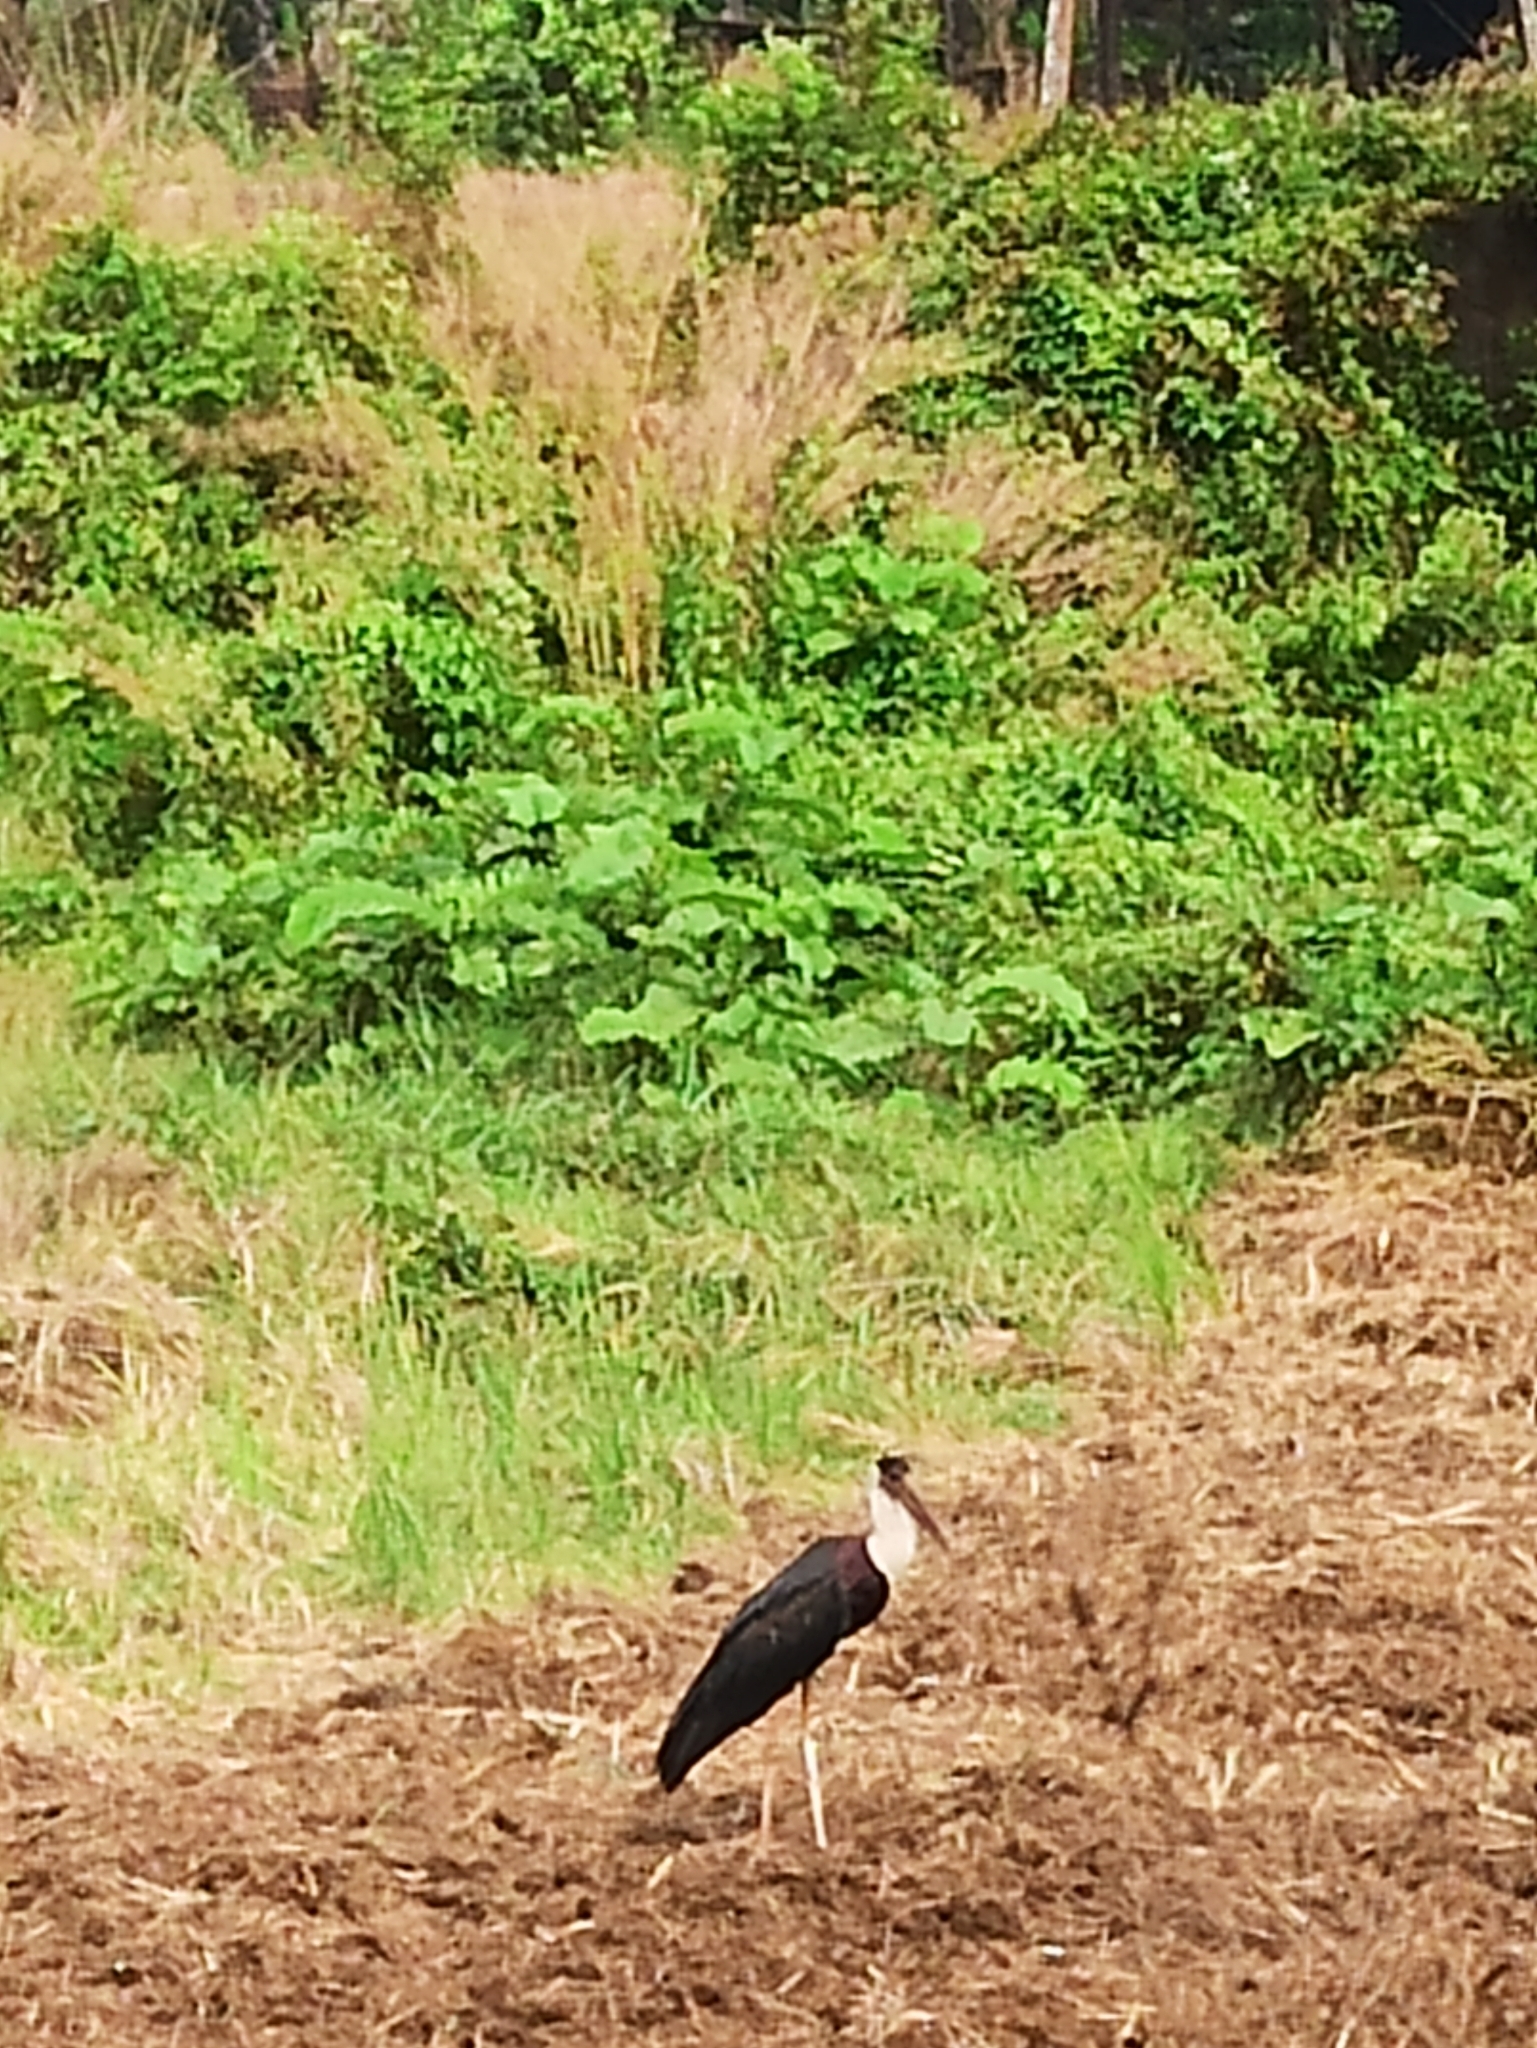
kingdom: Animalia
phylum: Chordata
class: Aves
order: Ciconiiformes
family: Ciconiidae
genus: Ciconia
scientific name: Ciconia episcopus
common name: Woolly-necked stork
